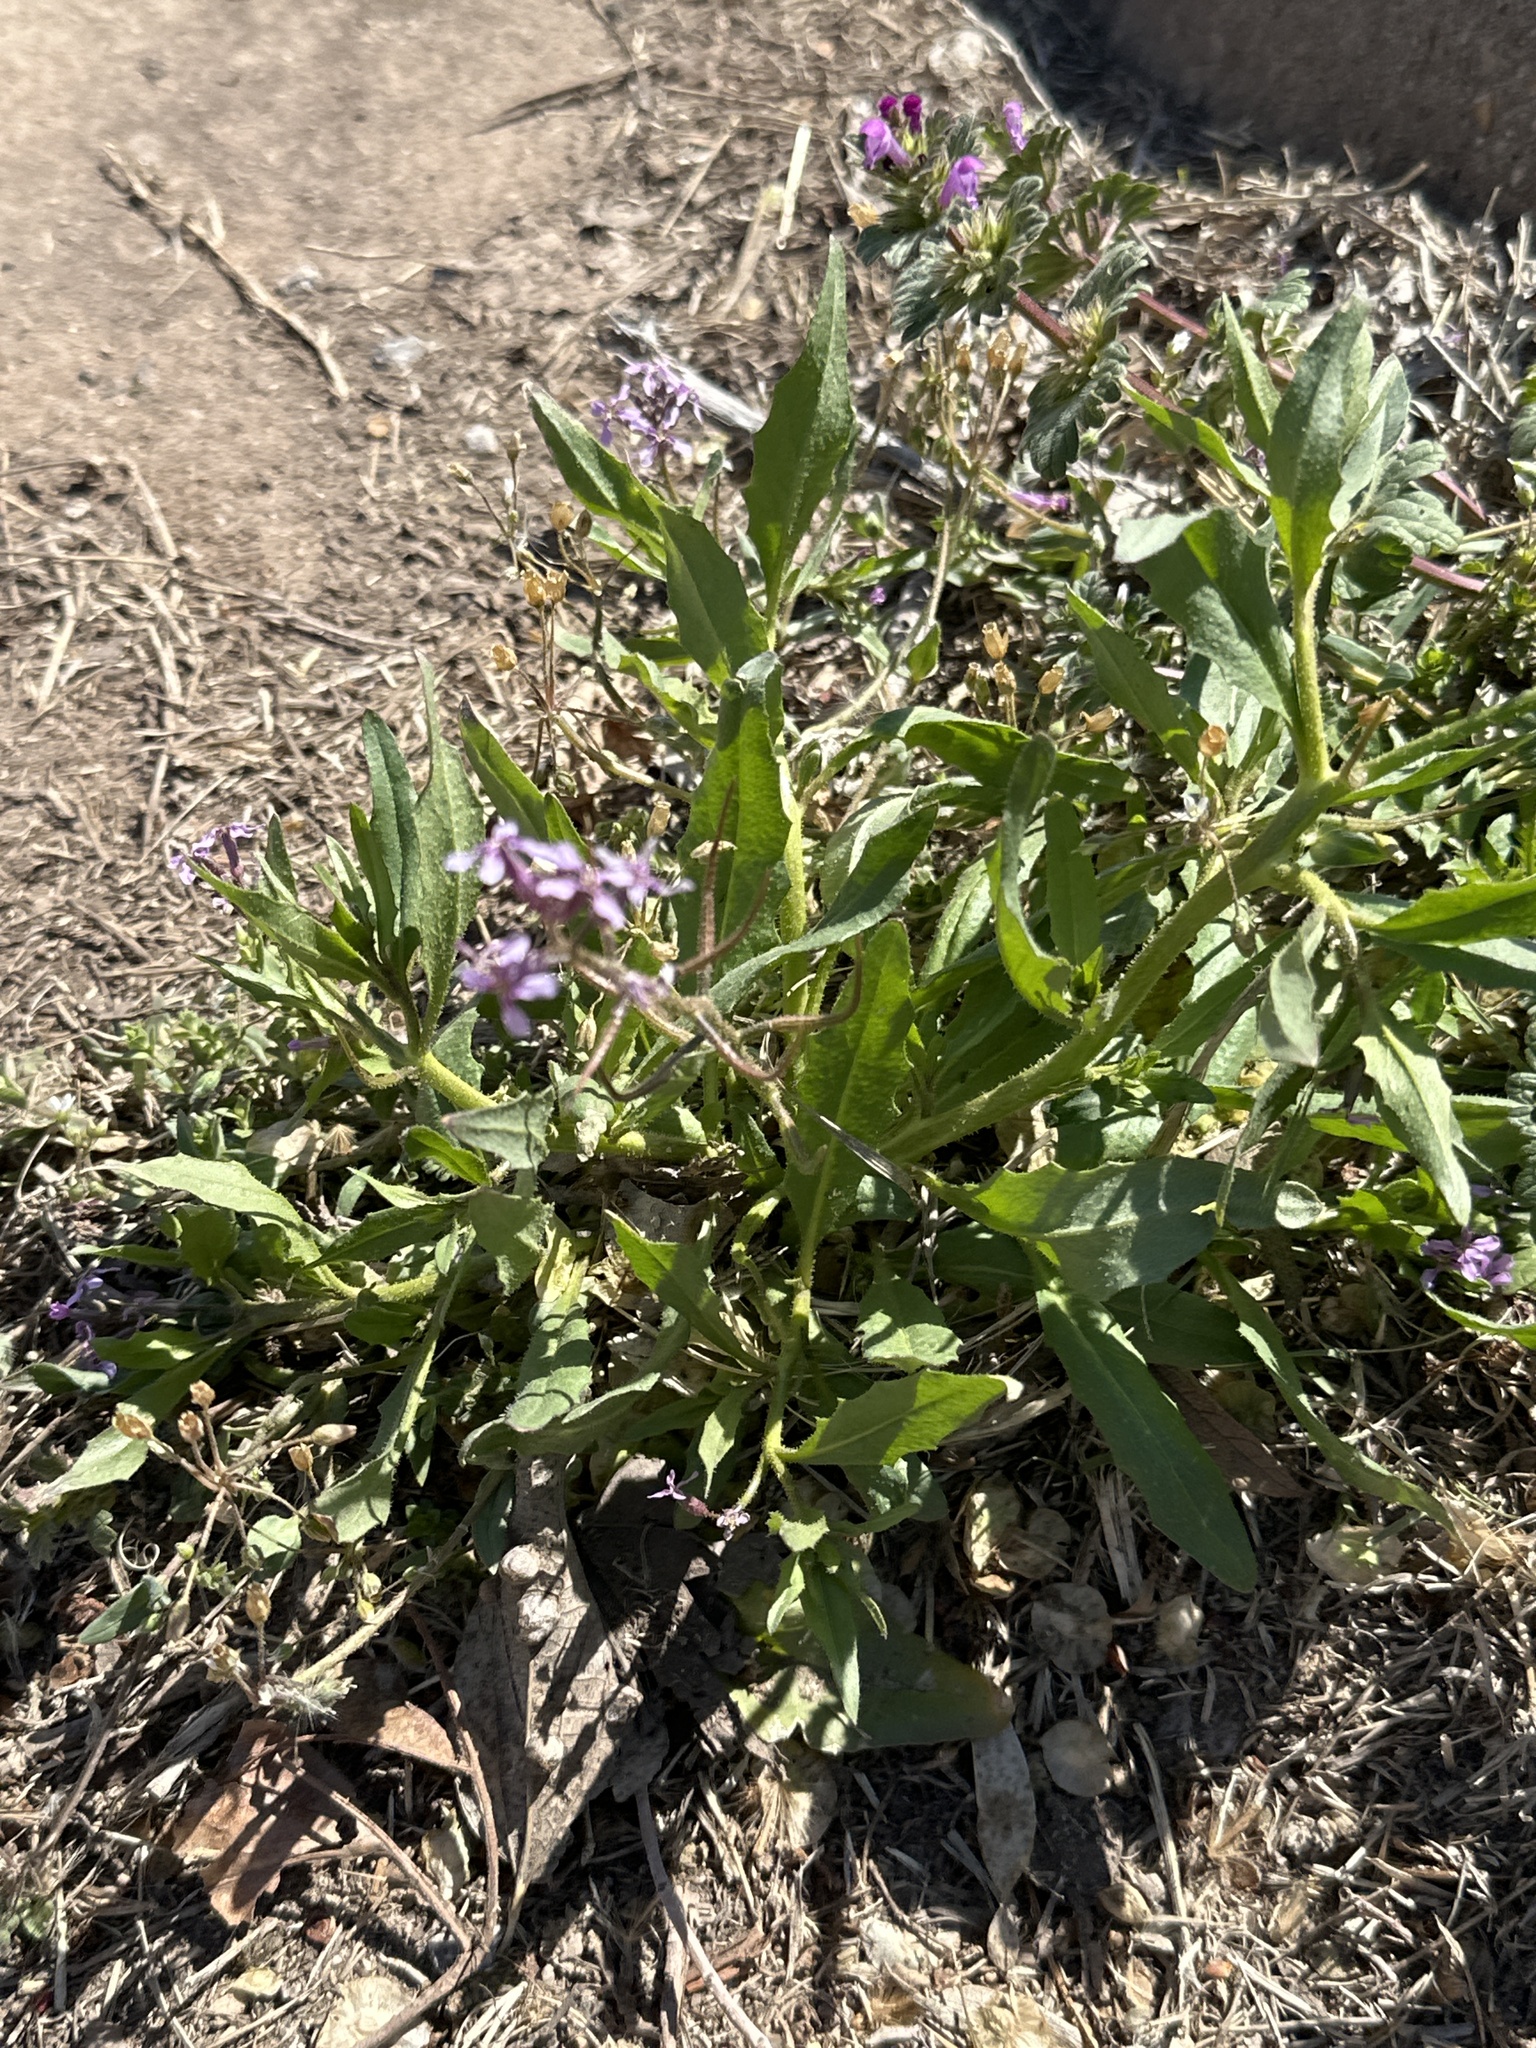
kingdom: Plantae
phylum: Tracheophyta
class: Magnoliopsida
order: Brassicales
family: Brassicaceae
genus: Chorispora
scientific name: Chorispora tenella
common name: Crossflower
